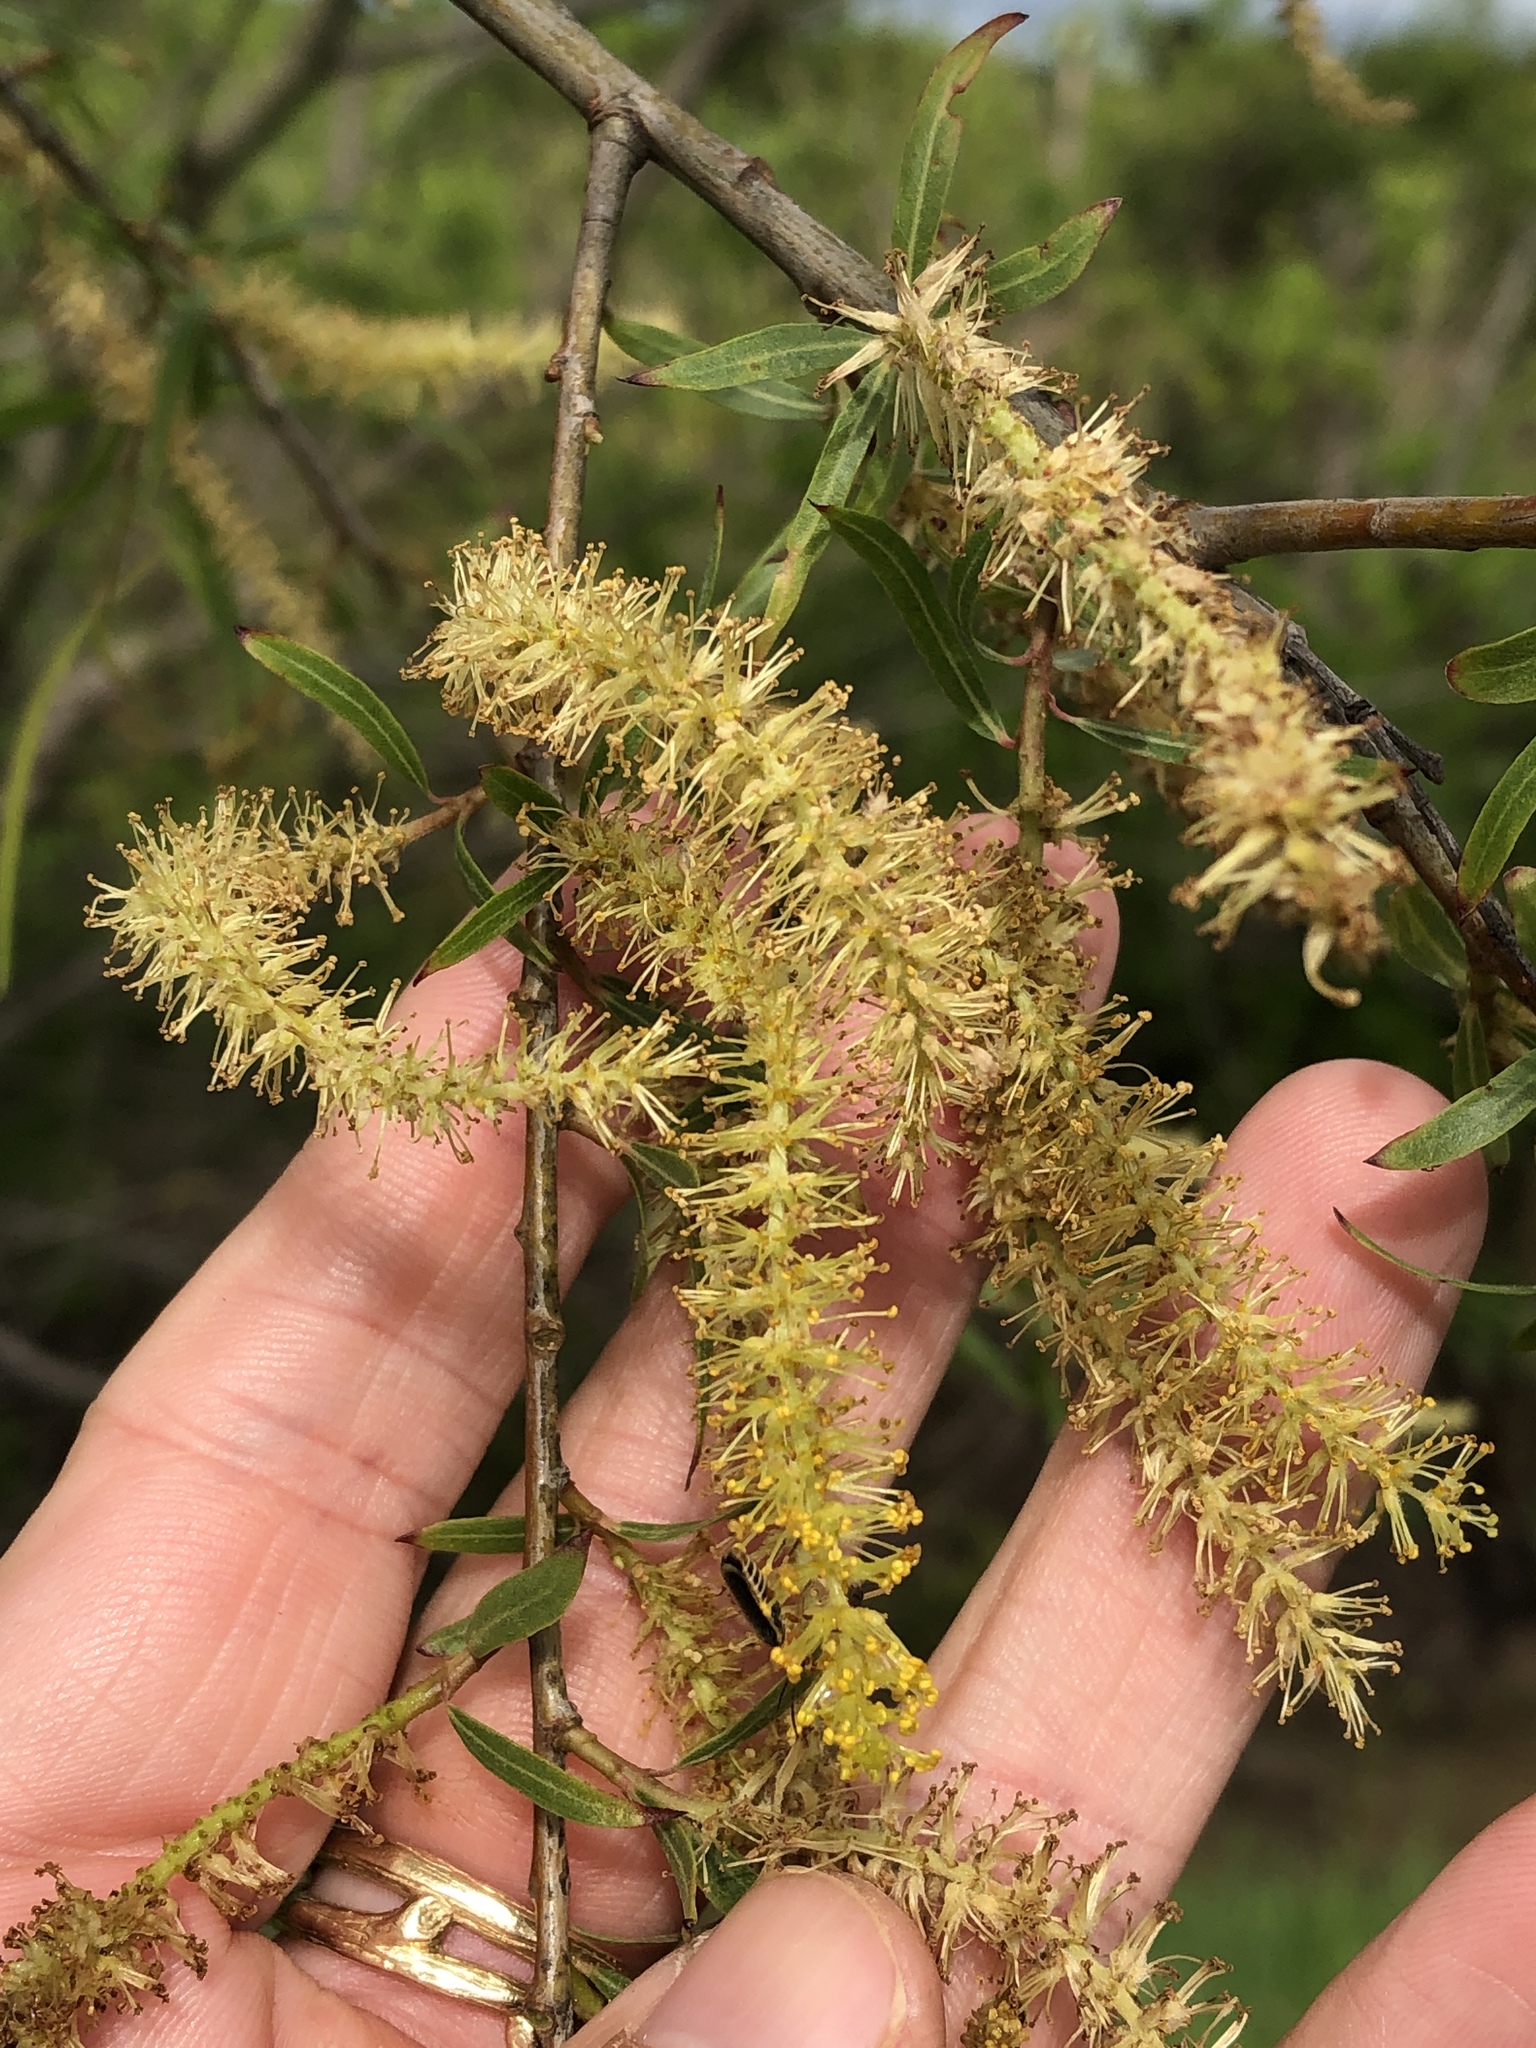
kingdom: Plantae
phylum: Tracheophyta
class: Magnoliopsida
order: Malpighiales
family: Salicaceae
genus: Salix
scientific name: Salix nigra
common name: Black willow
